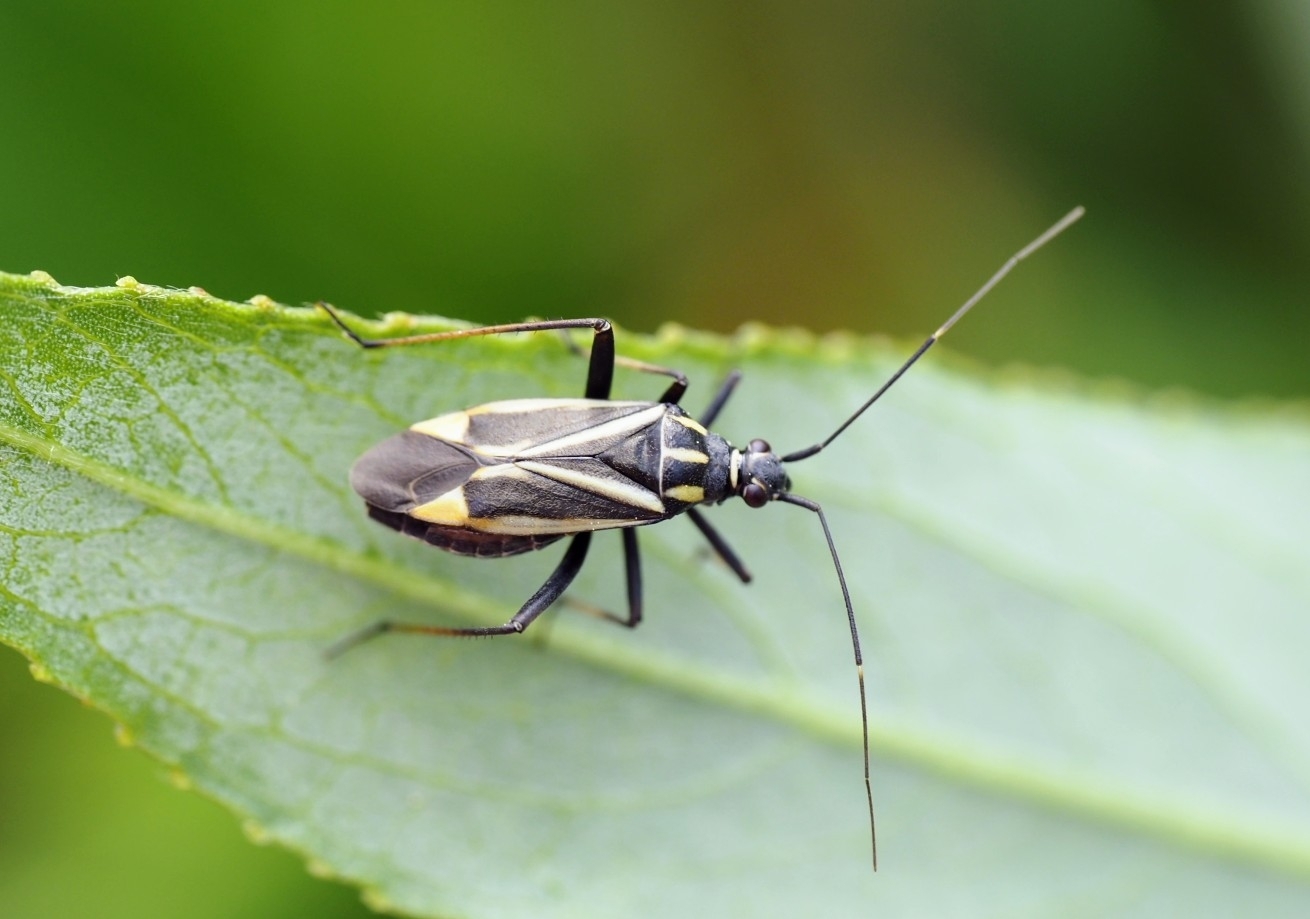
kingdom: Animalia
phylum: Arthropoda
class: Insecta
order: Hemiptera
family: Miridae
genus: Hadrodemus
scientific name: Hadrodemus m-flavum
